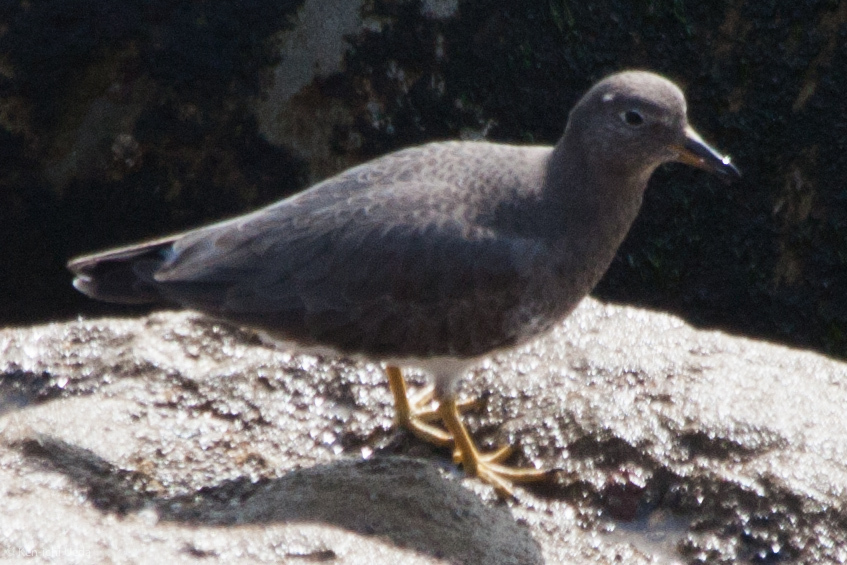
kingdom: Animalia
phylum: Chordata
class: Aves
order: Charadriiformes
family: Scolopacidae
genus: Calidris
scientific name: Calidris virgata
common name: Surfbird
